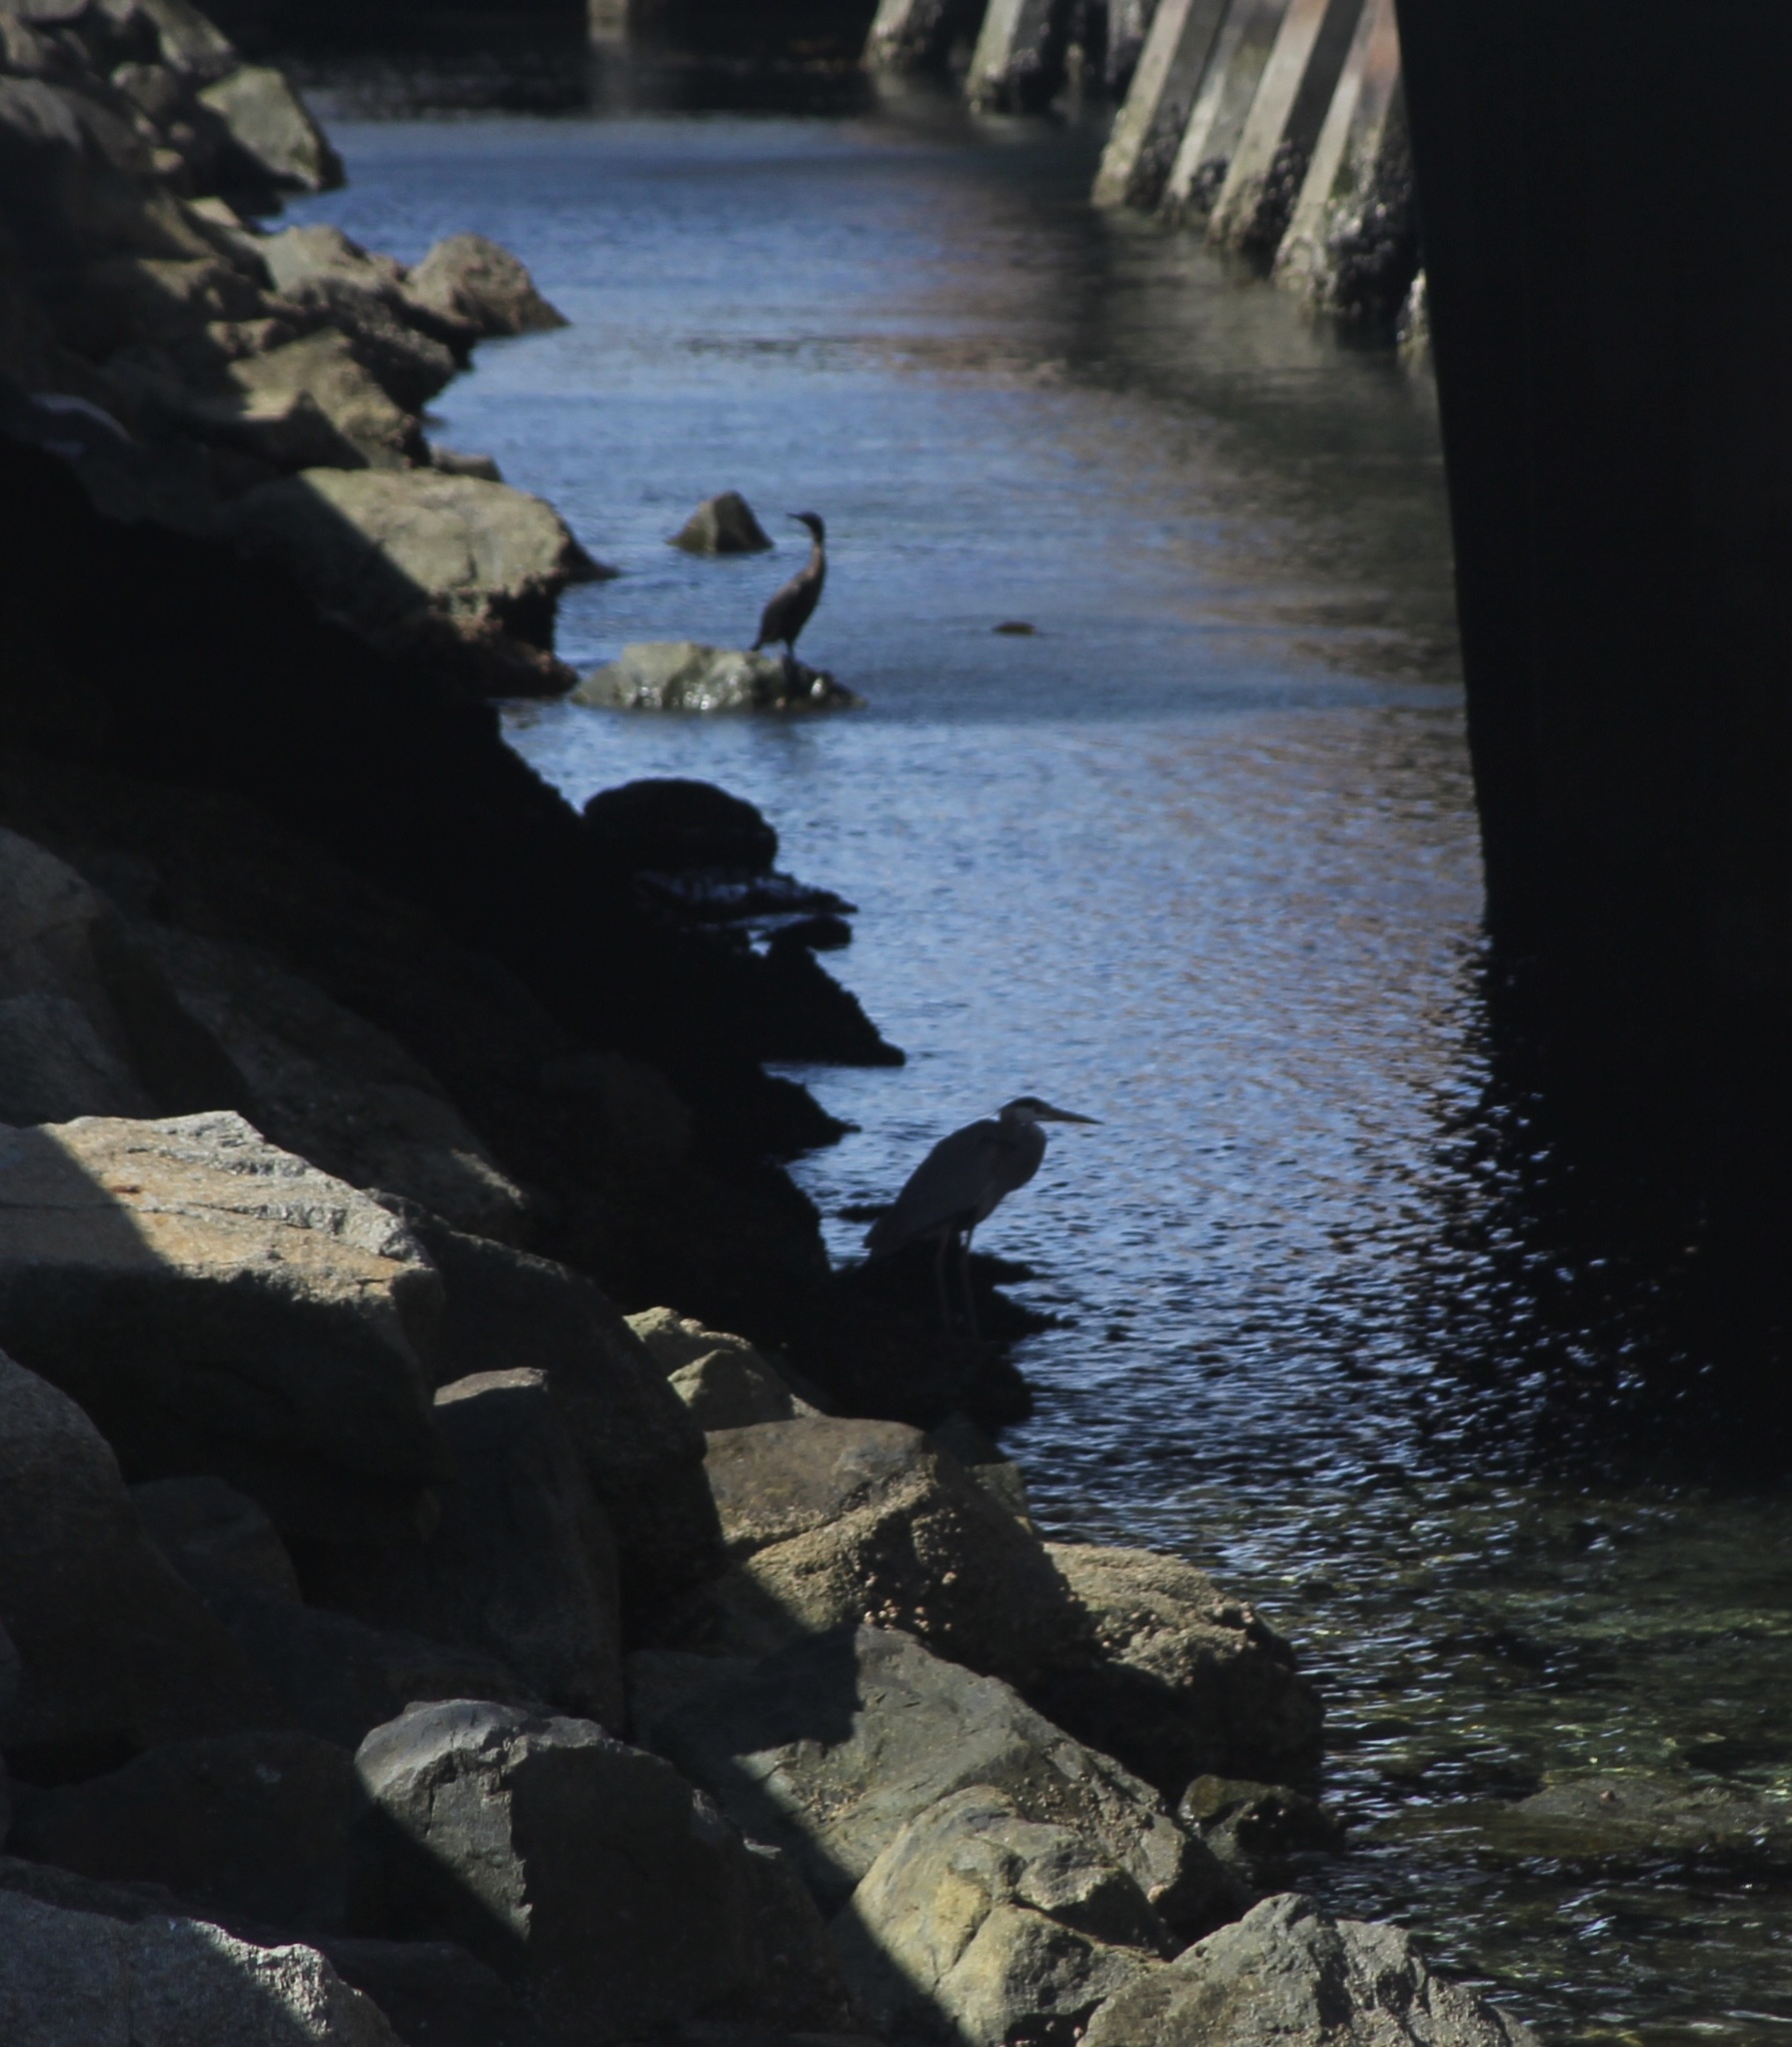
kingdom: Animalia
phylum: Chordata
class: Aves
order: Pelecaniformes
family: Ardeidae
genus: Ardea
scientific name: Ardea herodias
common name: Great blue heron
